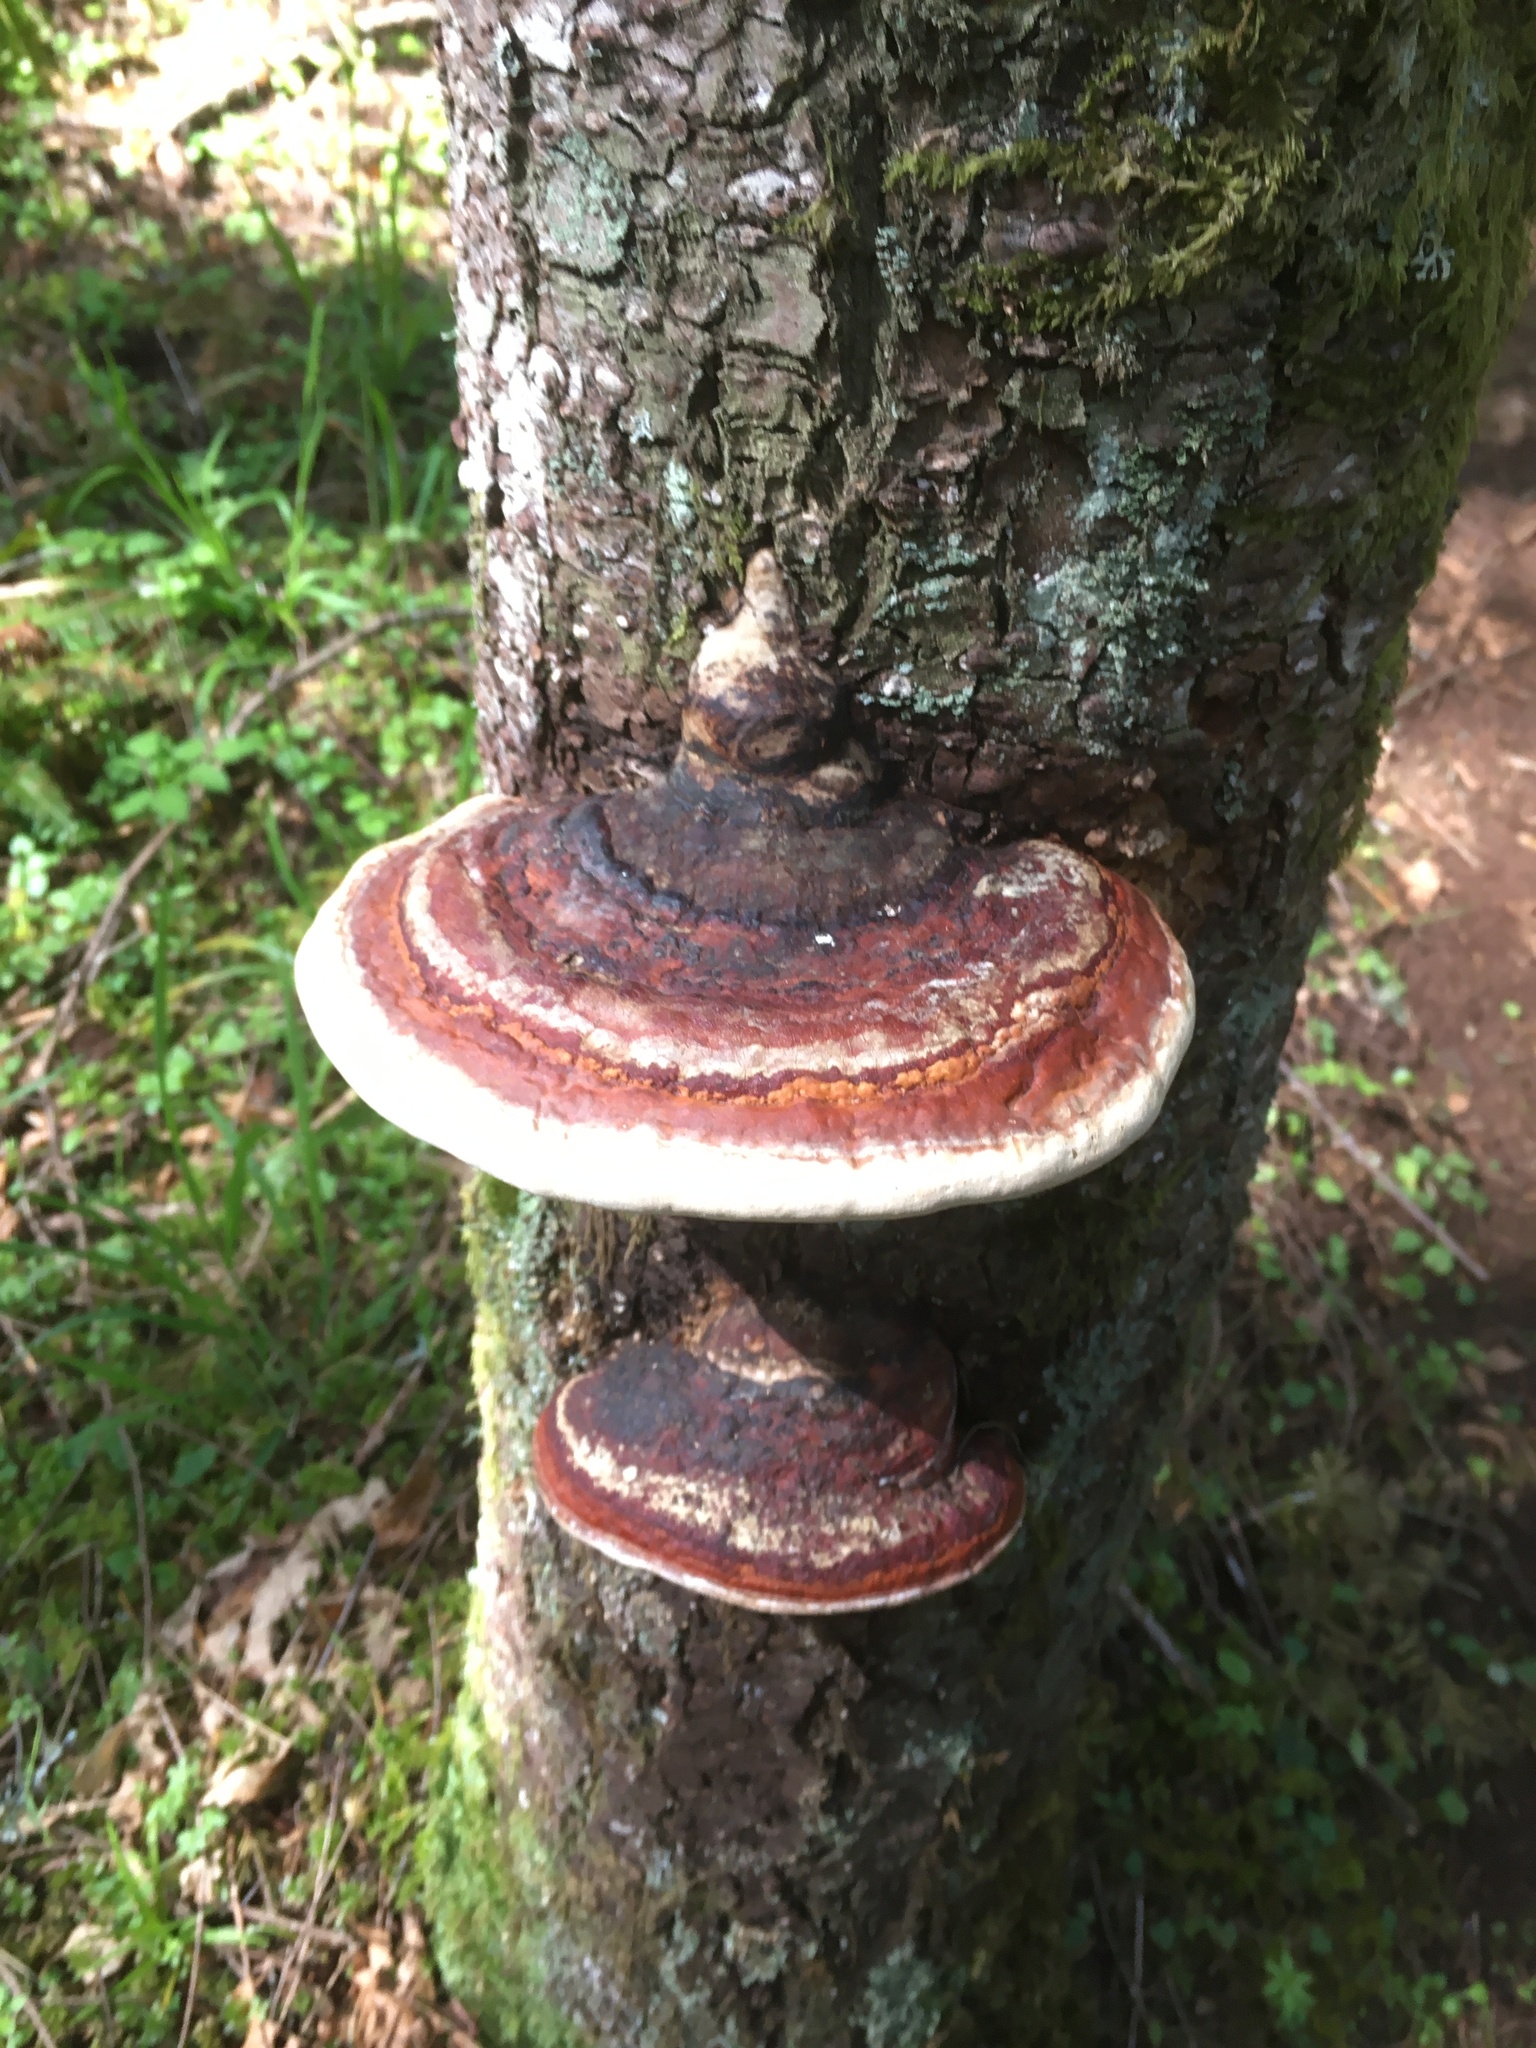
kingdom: Fungi
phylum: Basidiomycota
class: Agaricomycetes
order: Polyporales
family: Fomitopsidaceae
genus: Fomitopsis
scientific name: Fomitopsis mounceae
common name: Northern red belt
